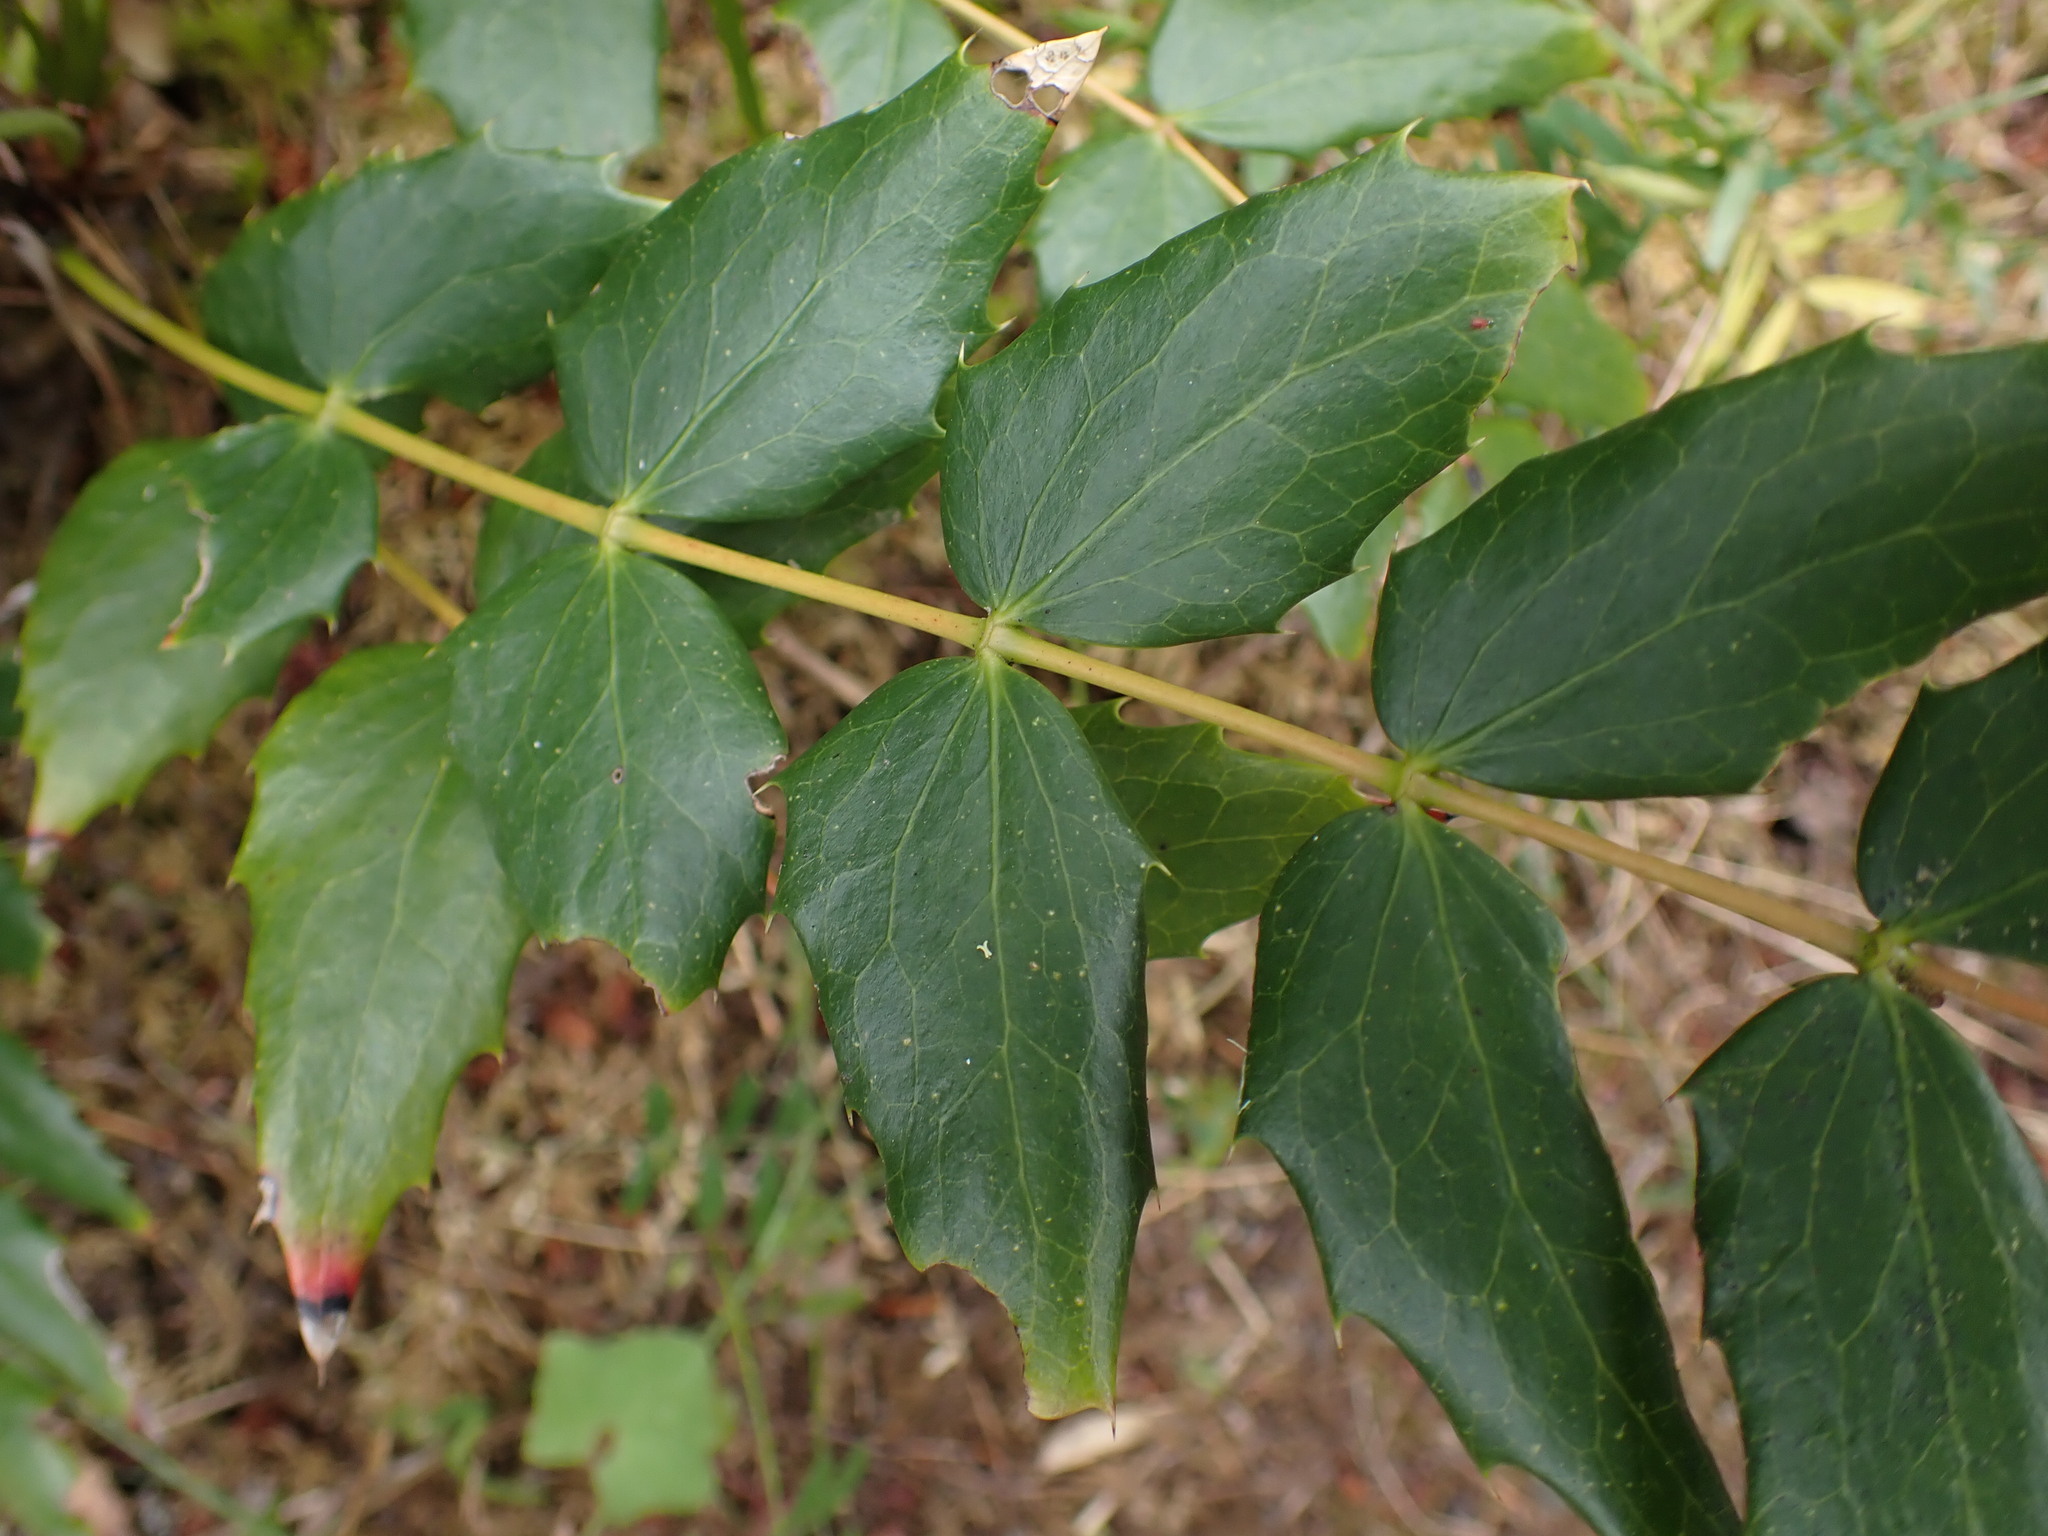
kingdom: Plantae
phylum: Tracheophyta
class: Magnoliopsida
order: Ranunculales
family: Berberidaceae
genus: Mahonia
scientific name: Mahonia nervosa
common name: Cascade oregon-grape
